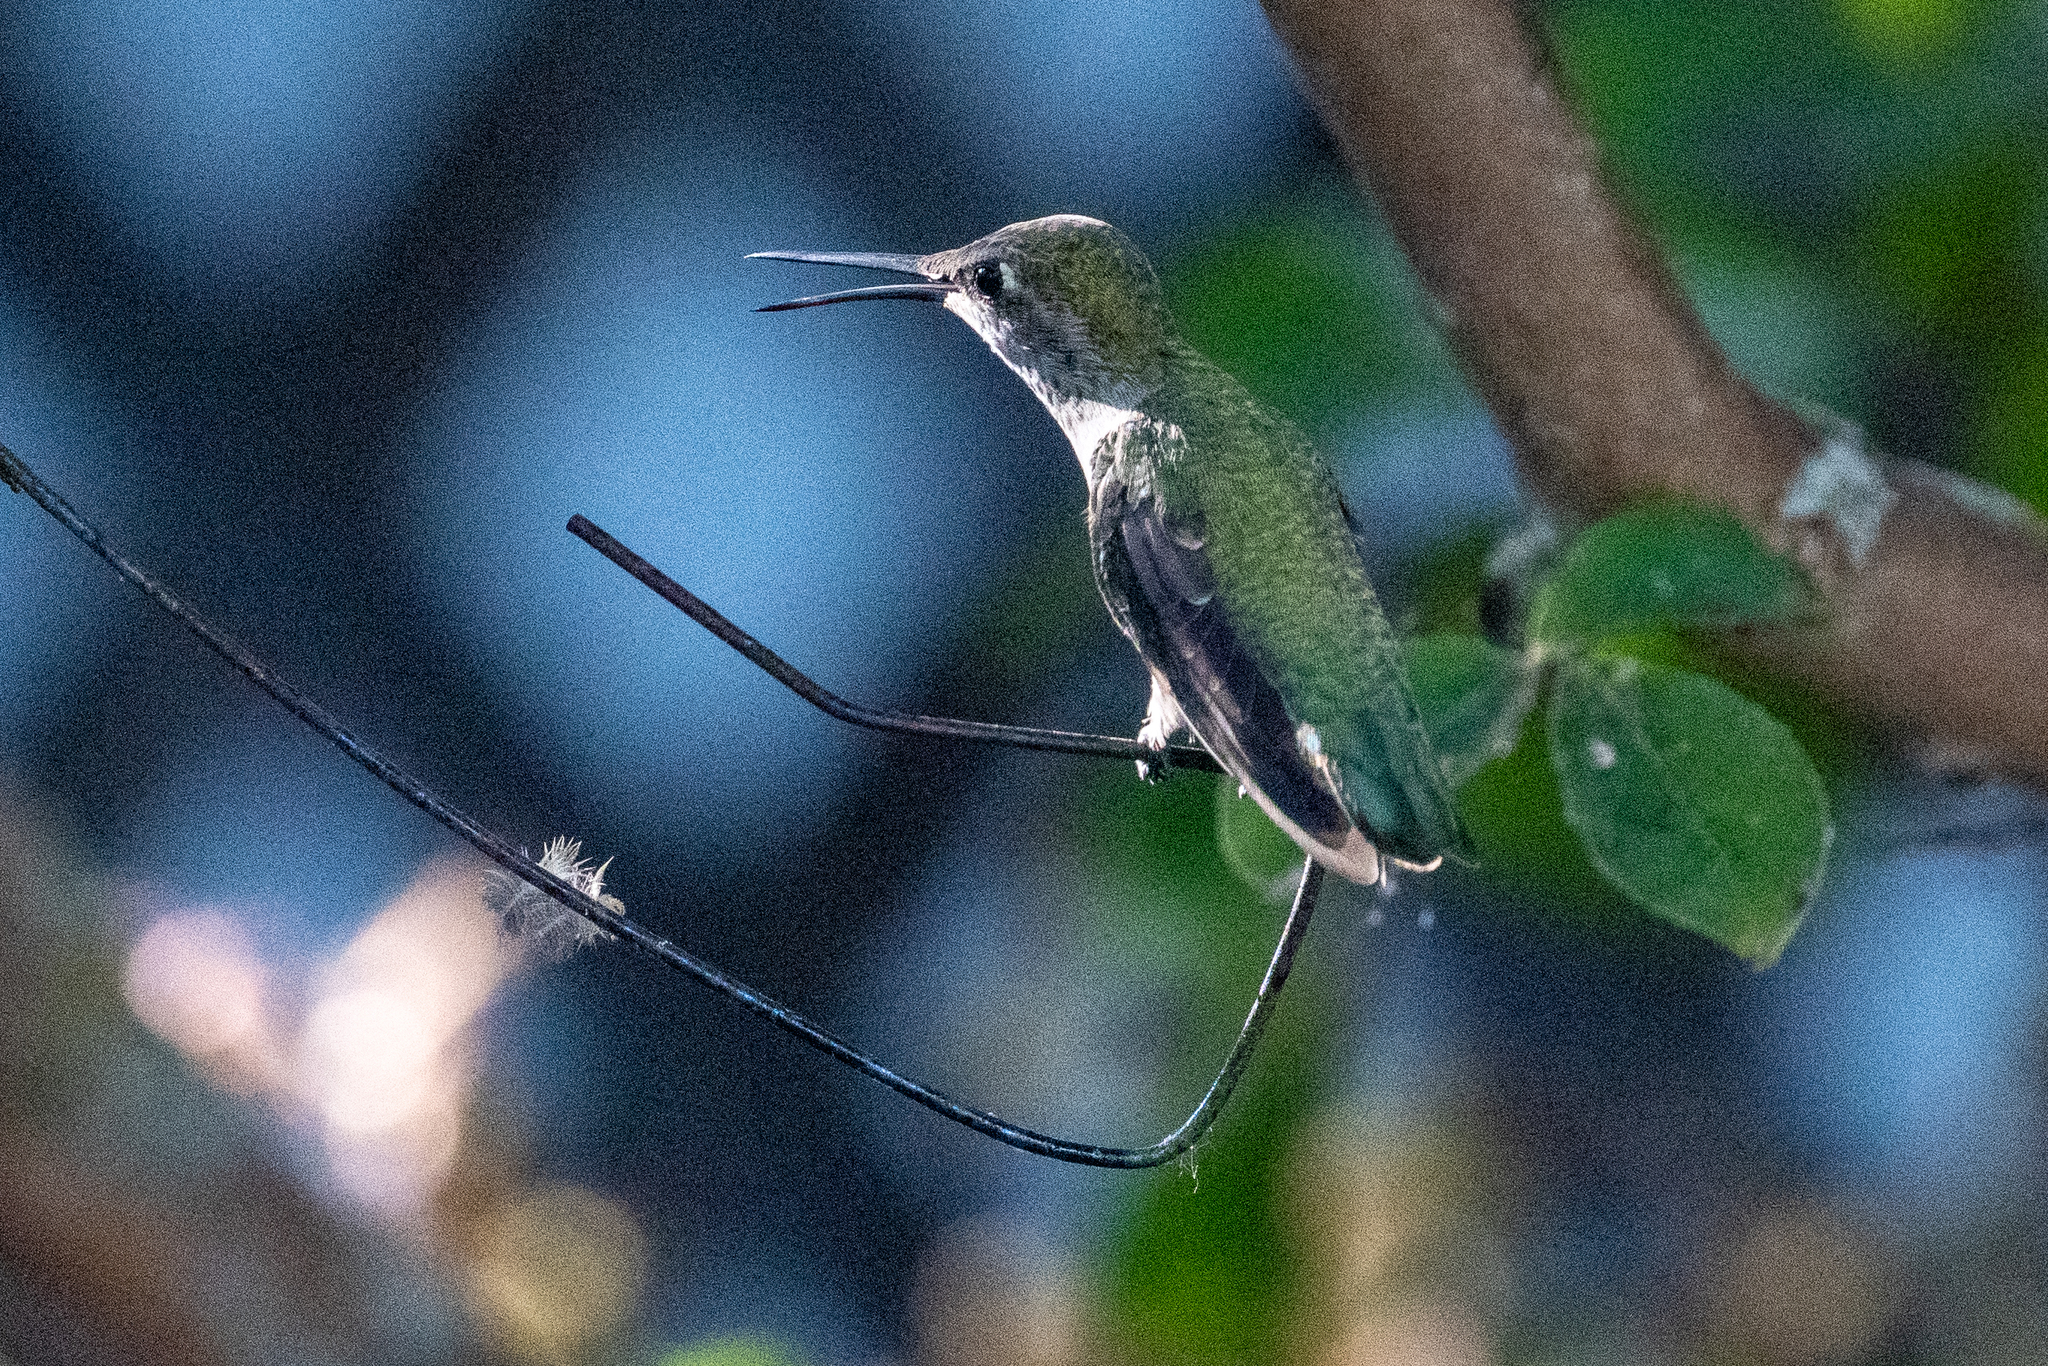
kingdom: Animalia
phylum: Chordata
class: Aves
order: Apodiformes
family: Trochilidae
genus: Calypte
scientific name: Calypte anna
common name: Anna's hummingbird
